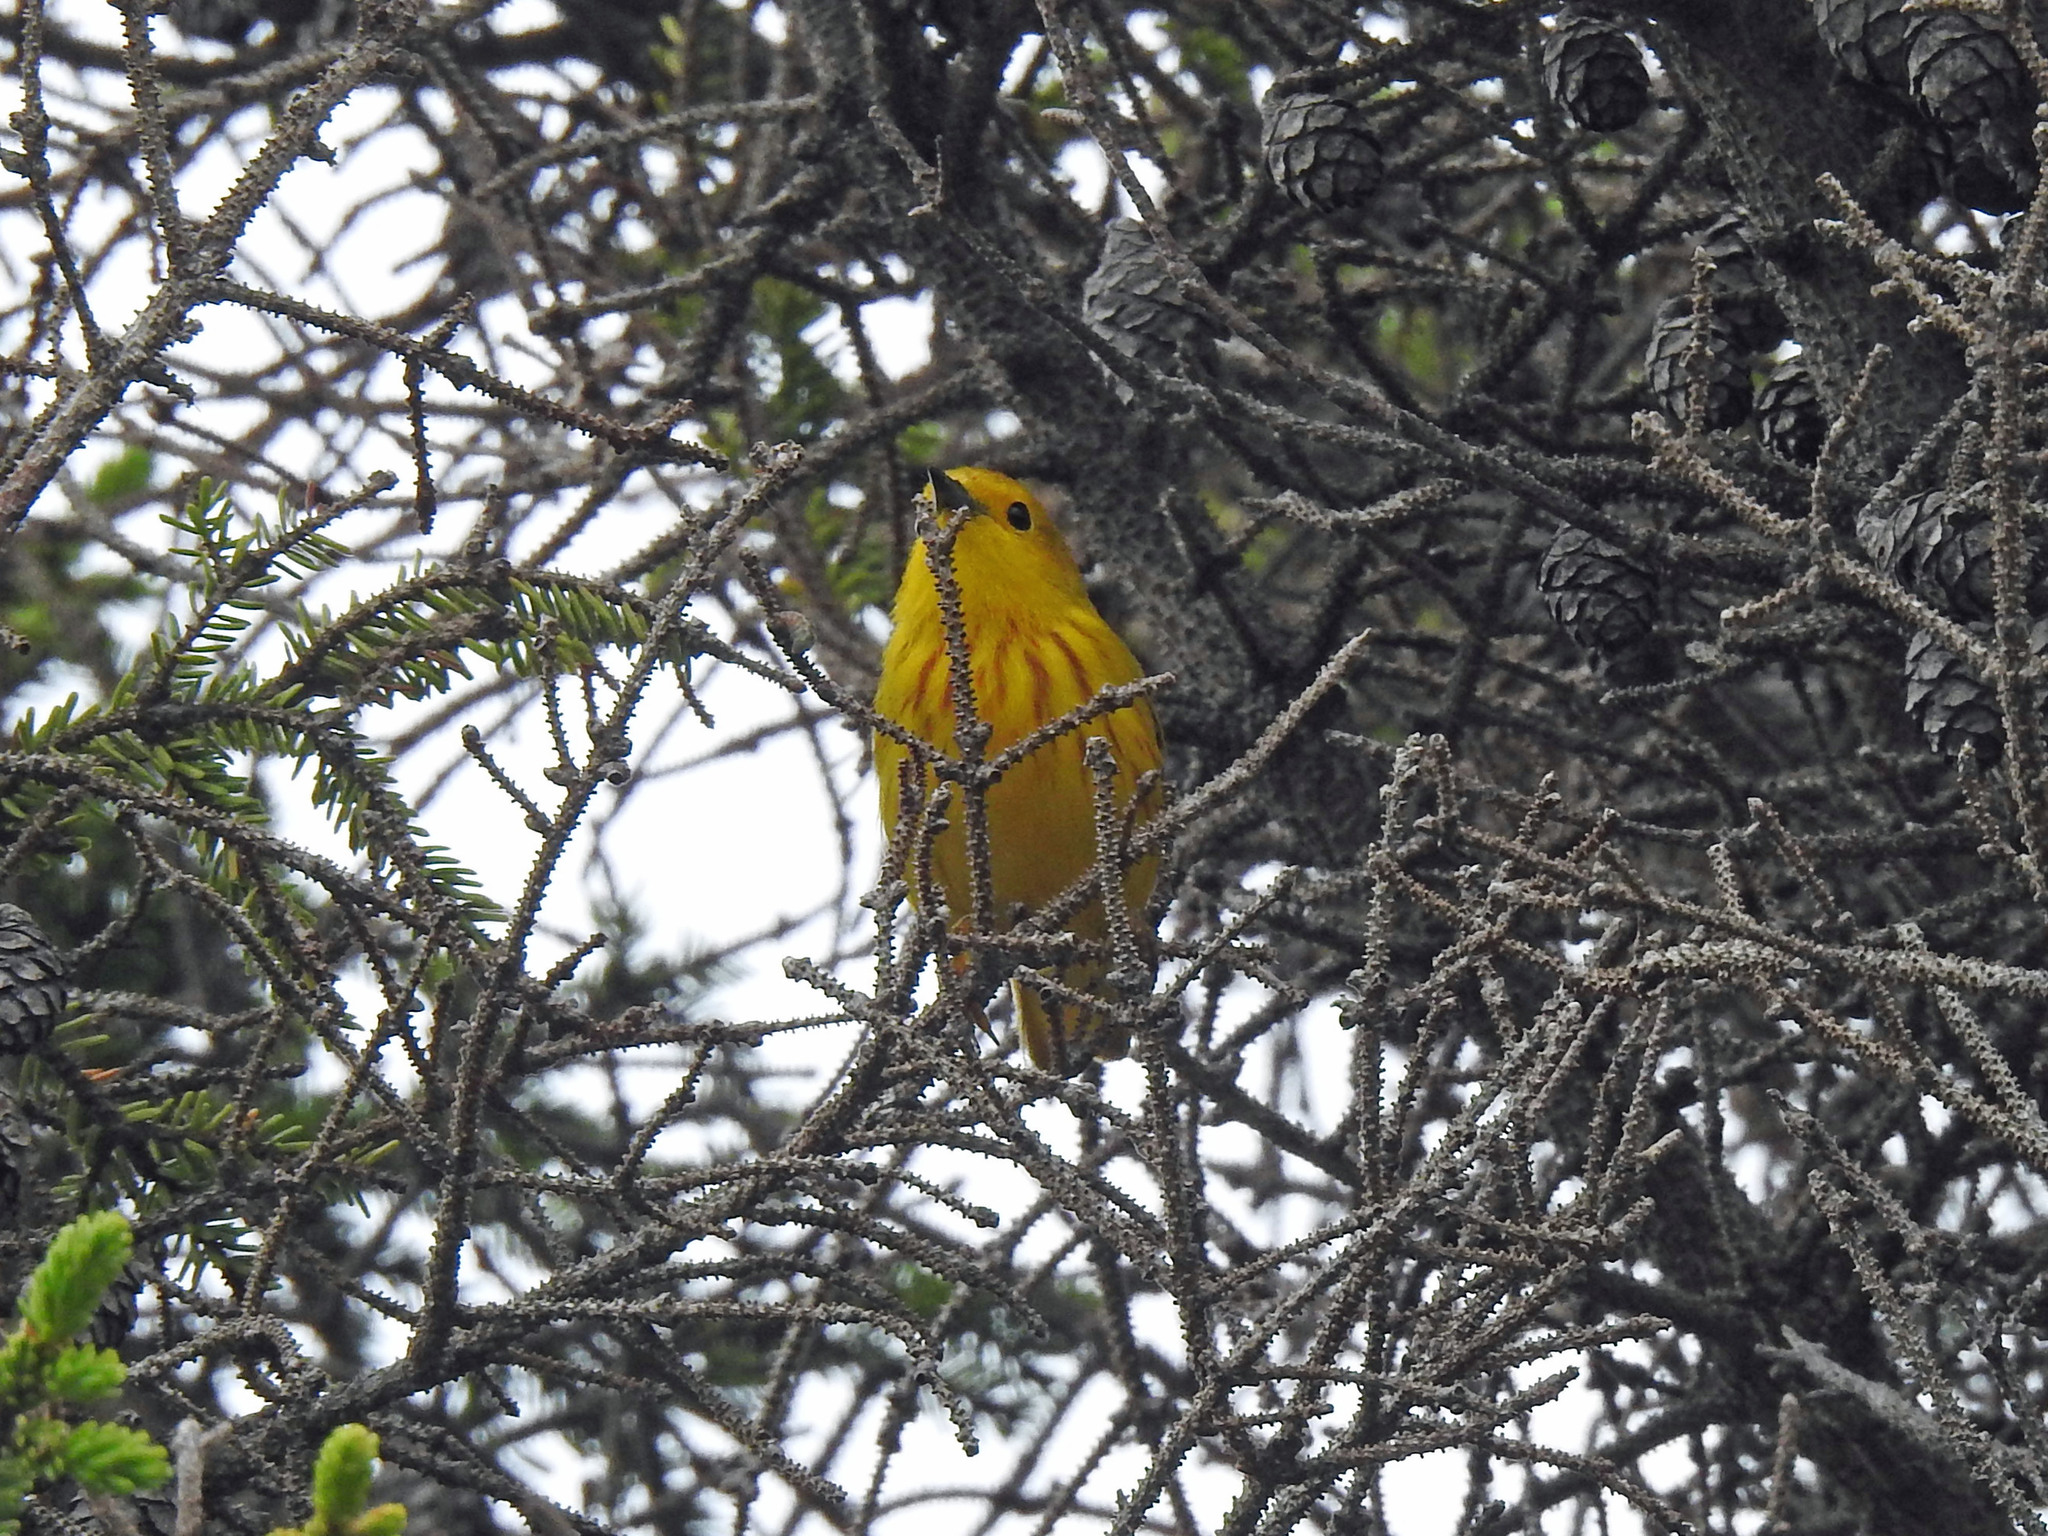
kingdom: Animalia
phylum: Chordata
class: Aves
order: Passeriformes
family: Parulidae
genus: Setophaga
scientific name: Setophaga petechia
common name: Yellow warbler
